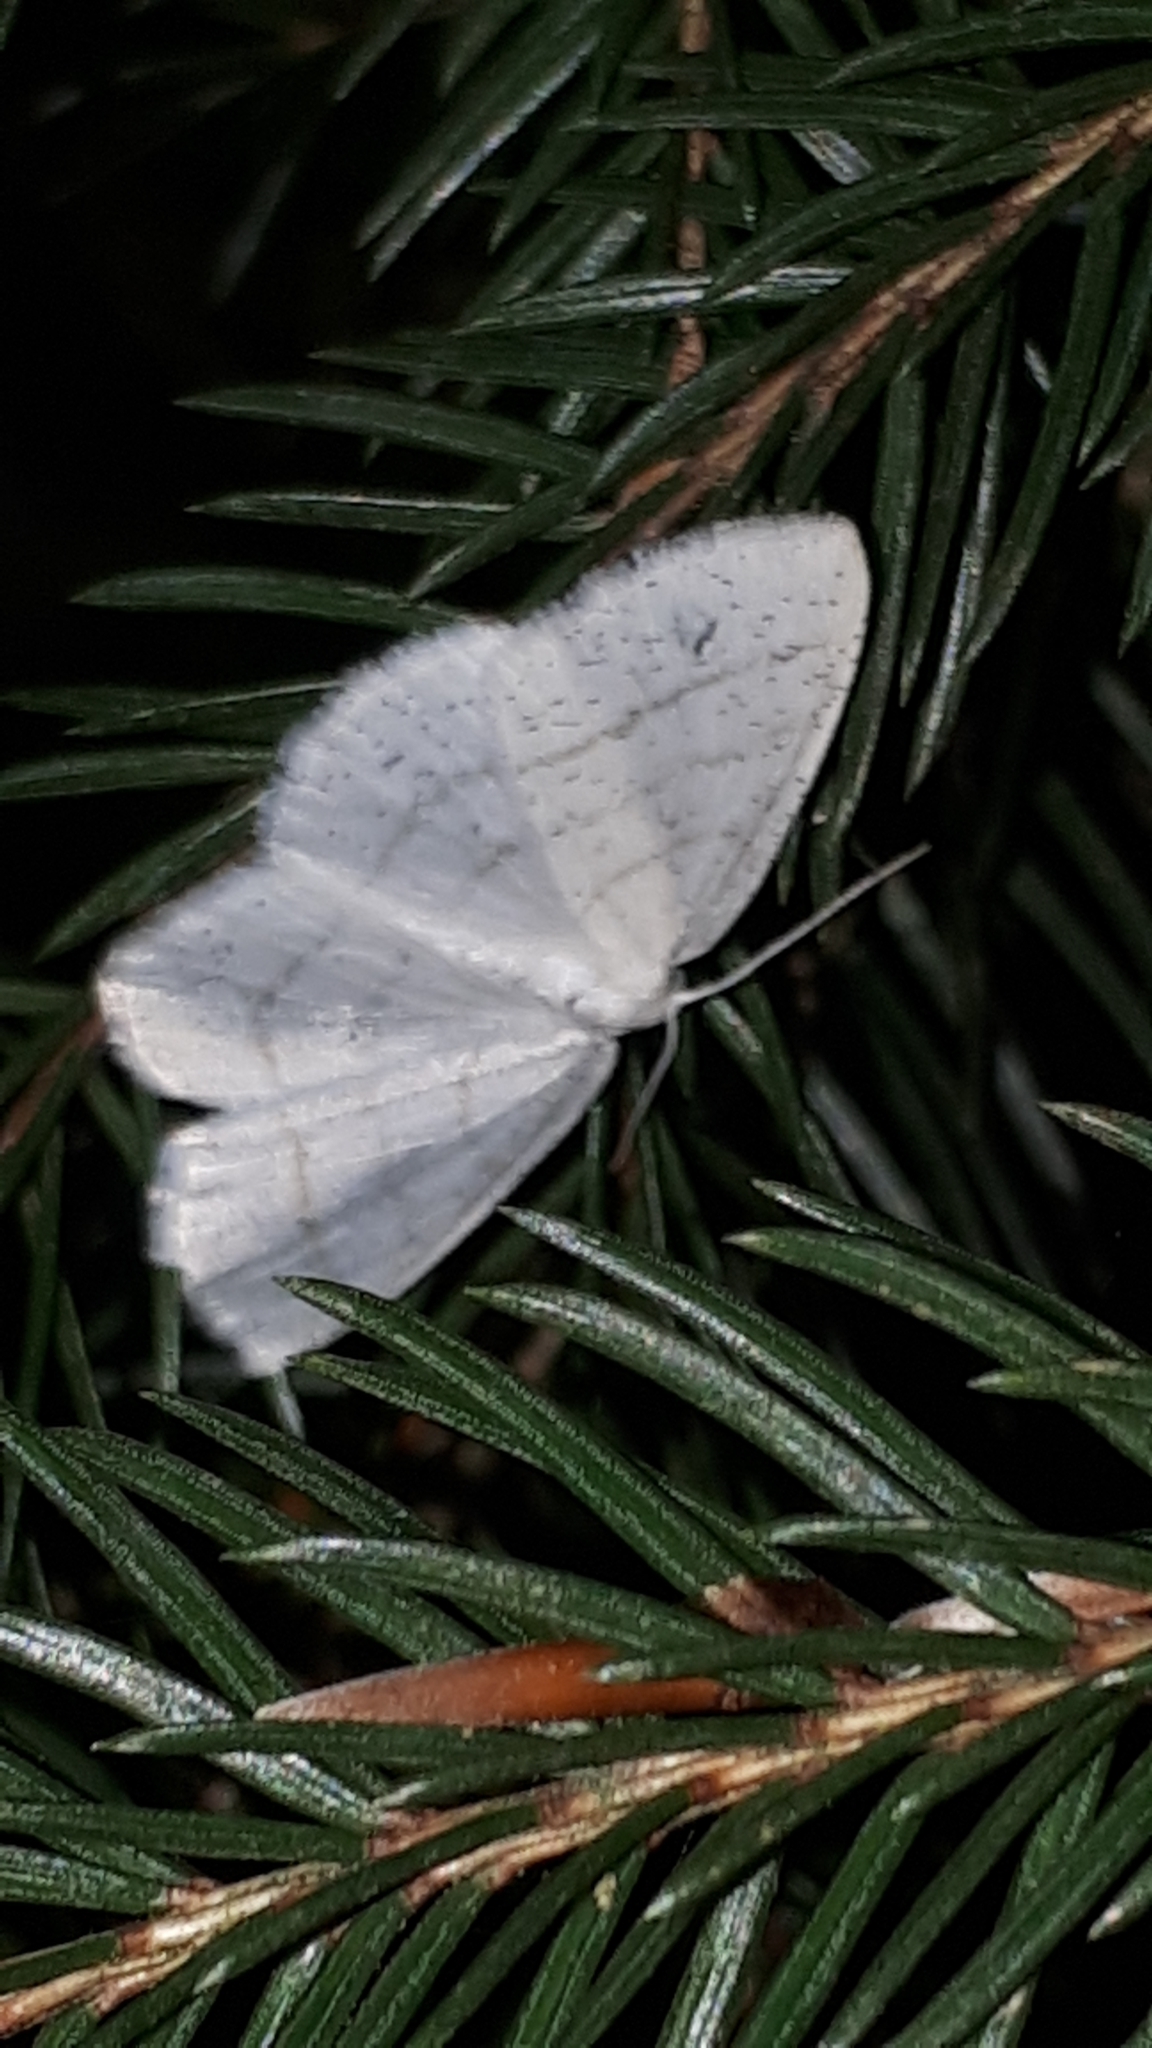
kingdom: Animalia
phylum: Arthropoda
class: Insecta
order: Lepidoptera
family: Geometridae
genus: Cabera
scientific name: Cabera pusaria
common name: Common white wave
